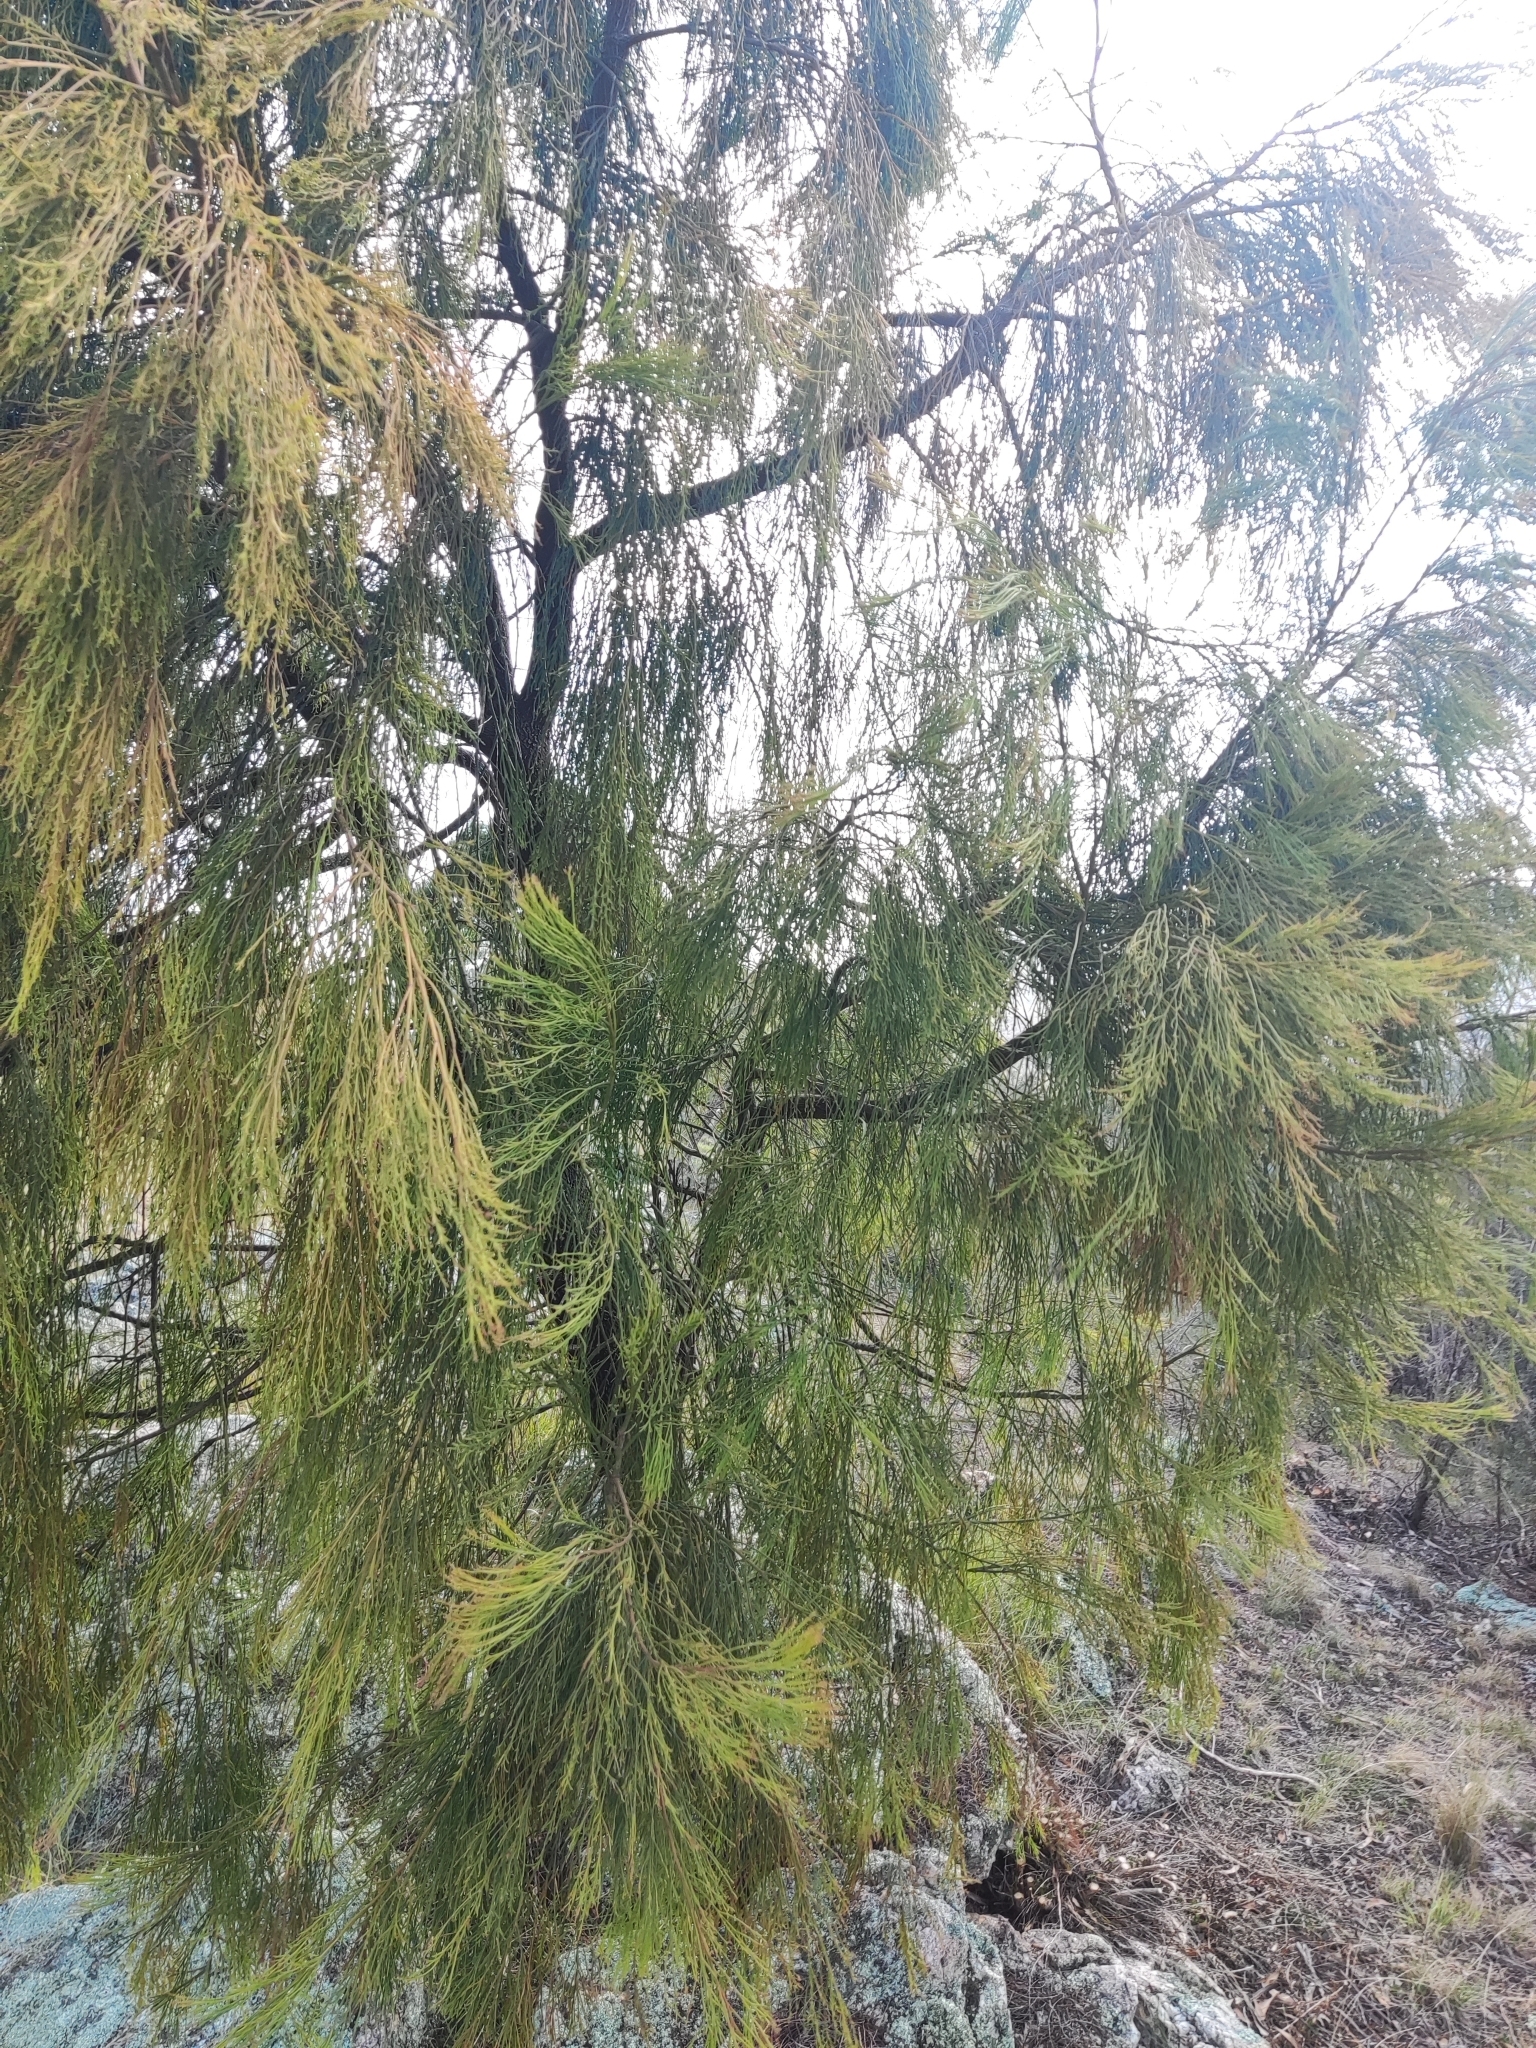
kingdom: Plantae
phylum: Tracheophyta
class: Magnoliopsida
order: Santalales
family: Santalaceae
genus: Exocarpos
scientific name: Exocarpos cupressiformis
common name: Cherry ballart
